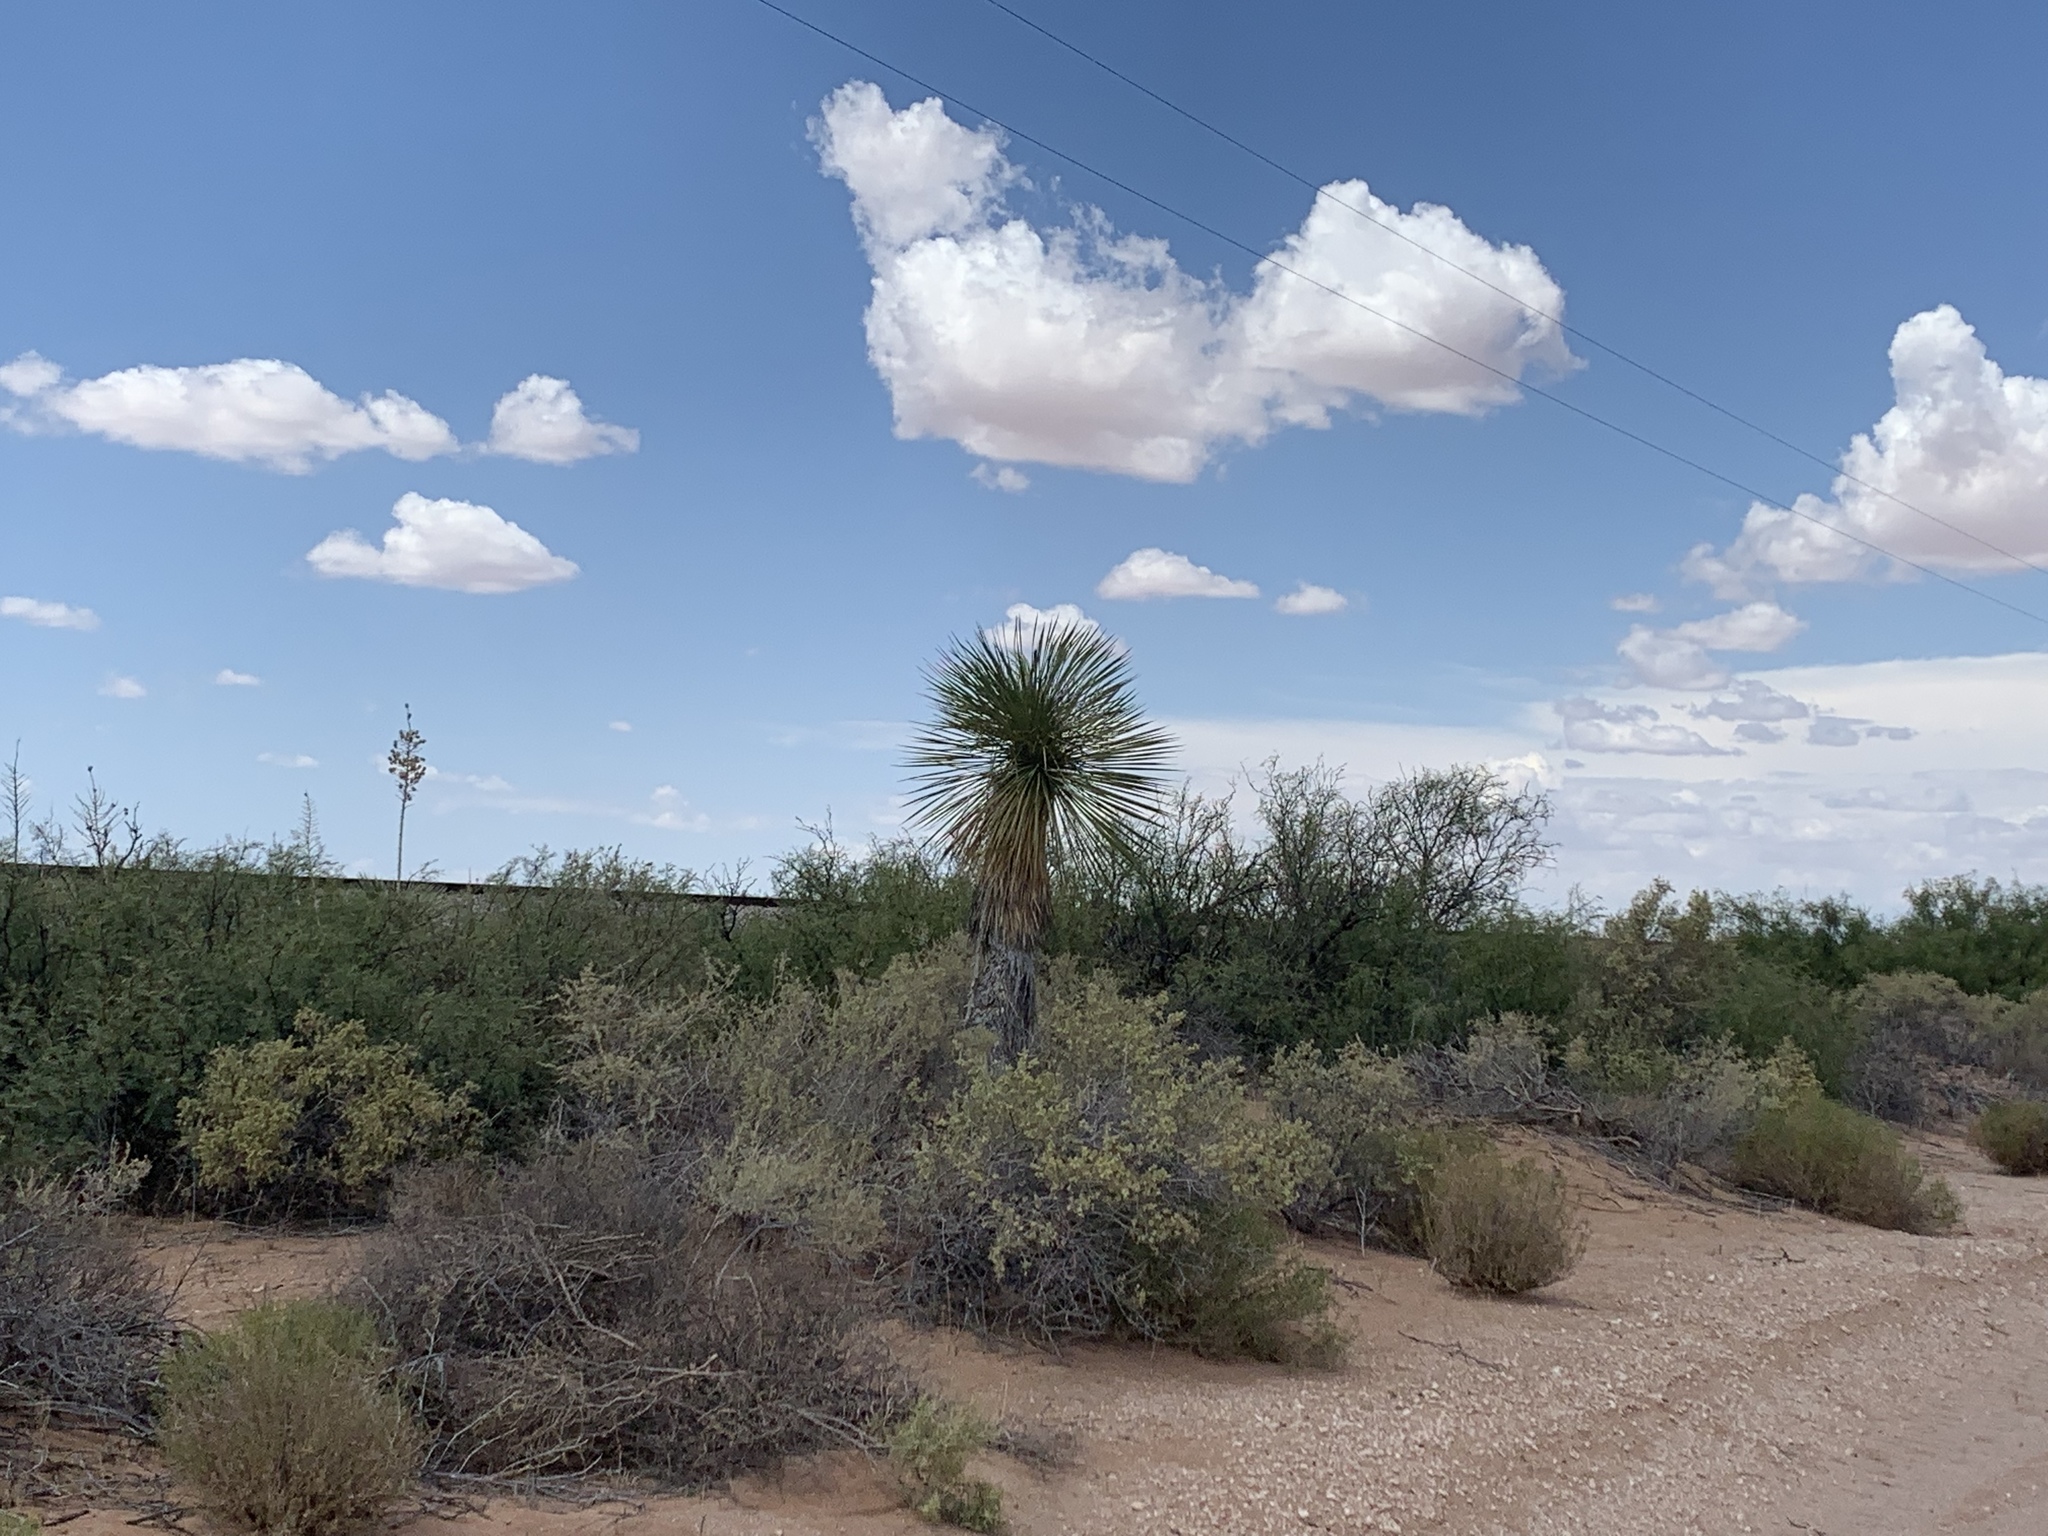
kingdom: Plantae
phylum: Tracheophyta
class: Liliopsida
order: Asparagales
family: Asparagaceae
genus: Yucca
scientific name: Yucca elata
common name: Palmella
